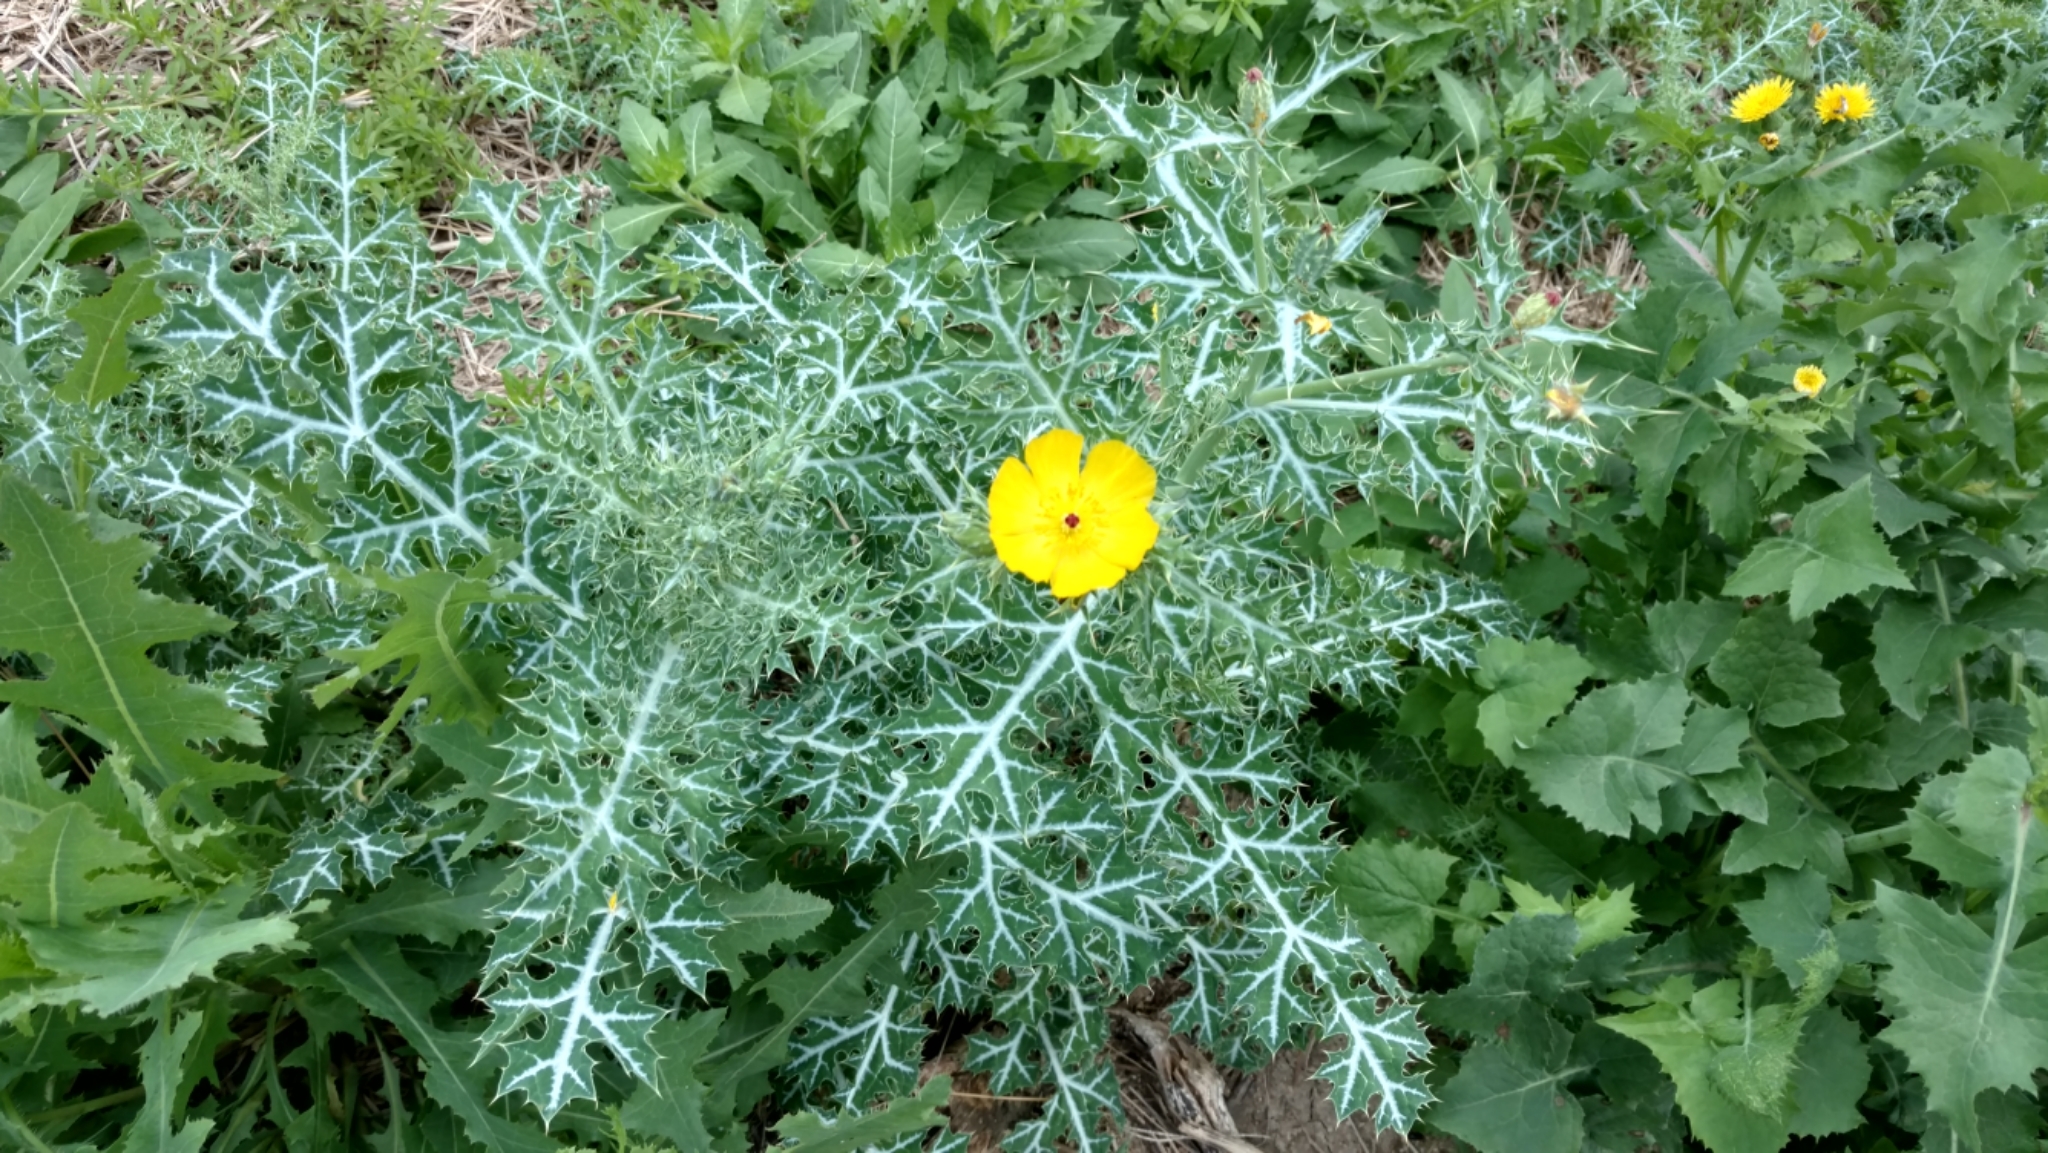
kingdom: Plantae
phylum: Tracheophyta
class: Magnoliopsida
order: Ranunculales
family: Papaveraceae
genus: Argemone
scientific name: Argemone mexicana
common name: Mexican poppy
